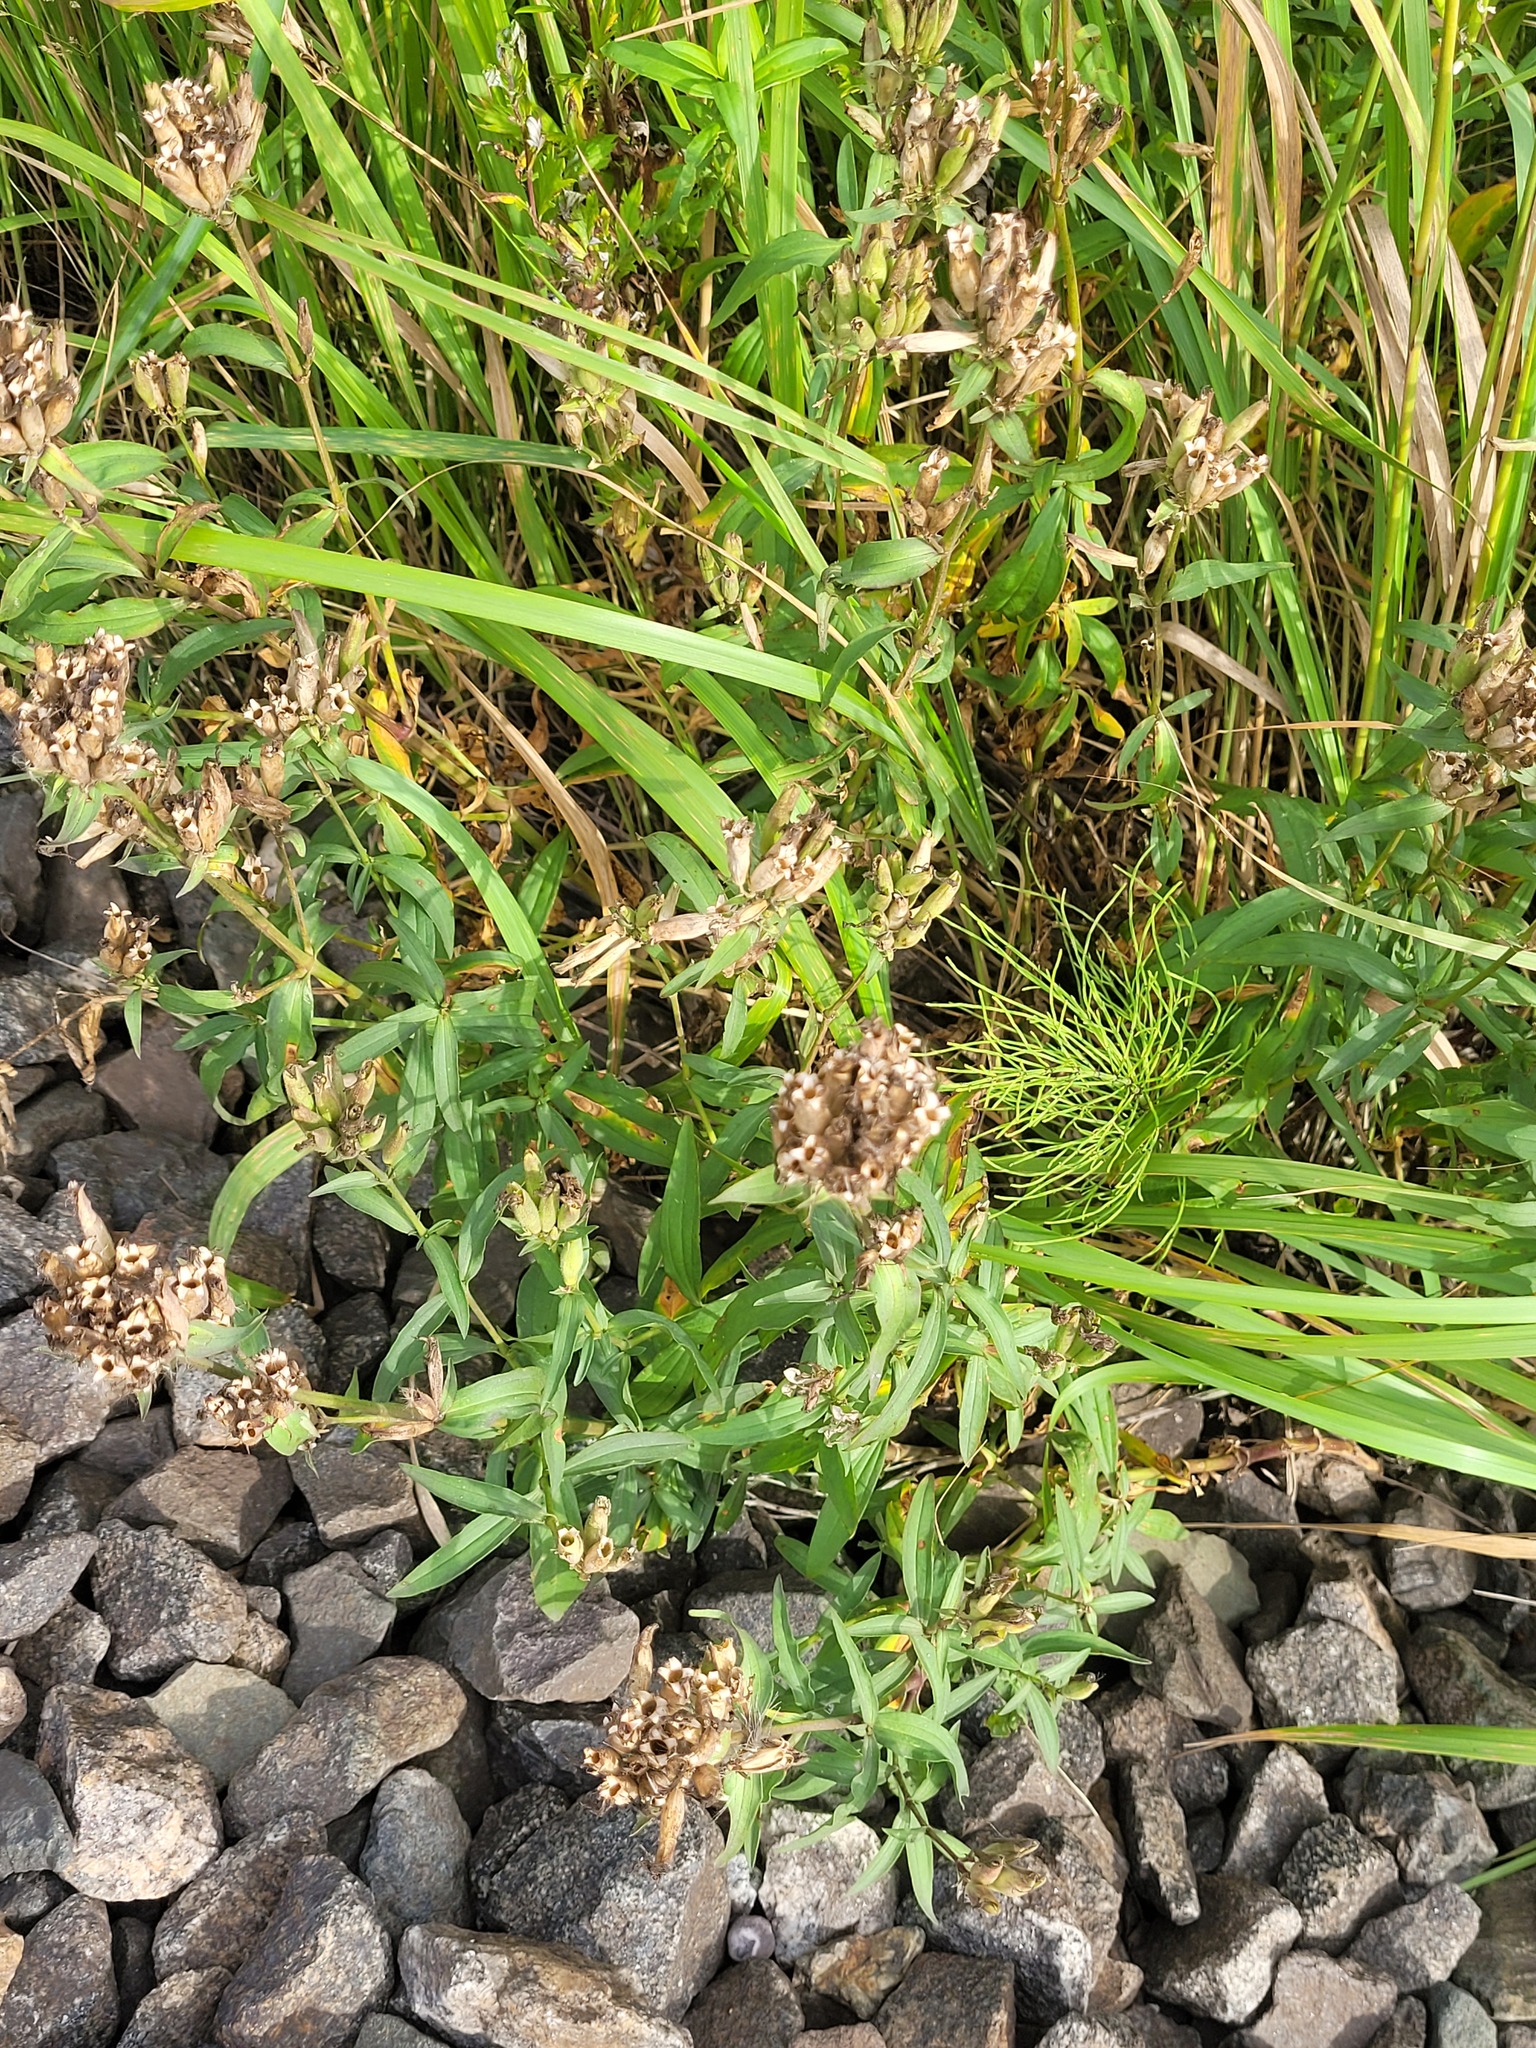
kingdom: Plantae
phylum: Tracheophyta
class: Magnoliopsida
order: Caryophyllales
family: Caryophyllaceae
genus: Saponaria
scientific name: Saponaria officinalis
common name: Soapwort
